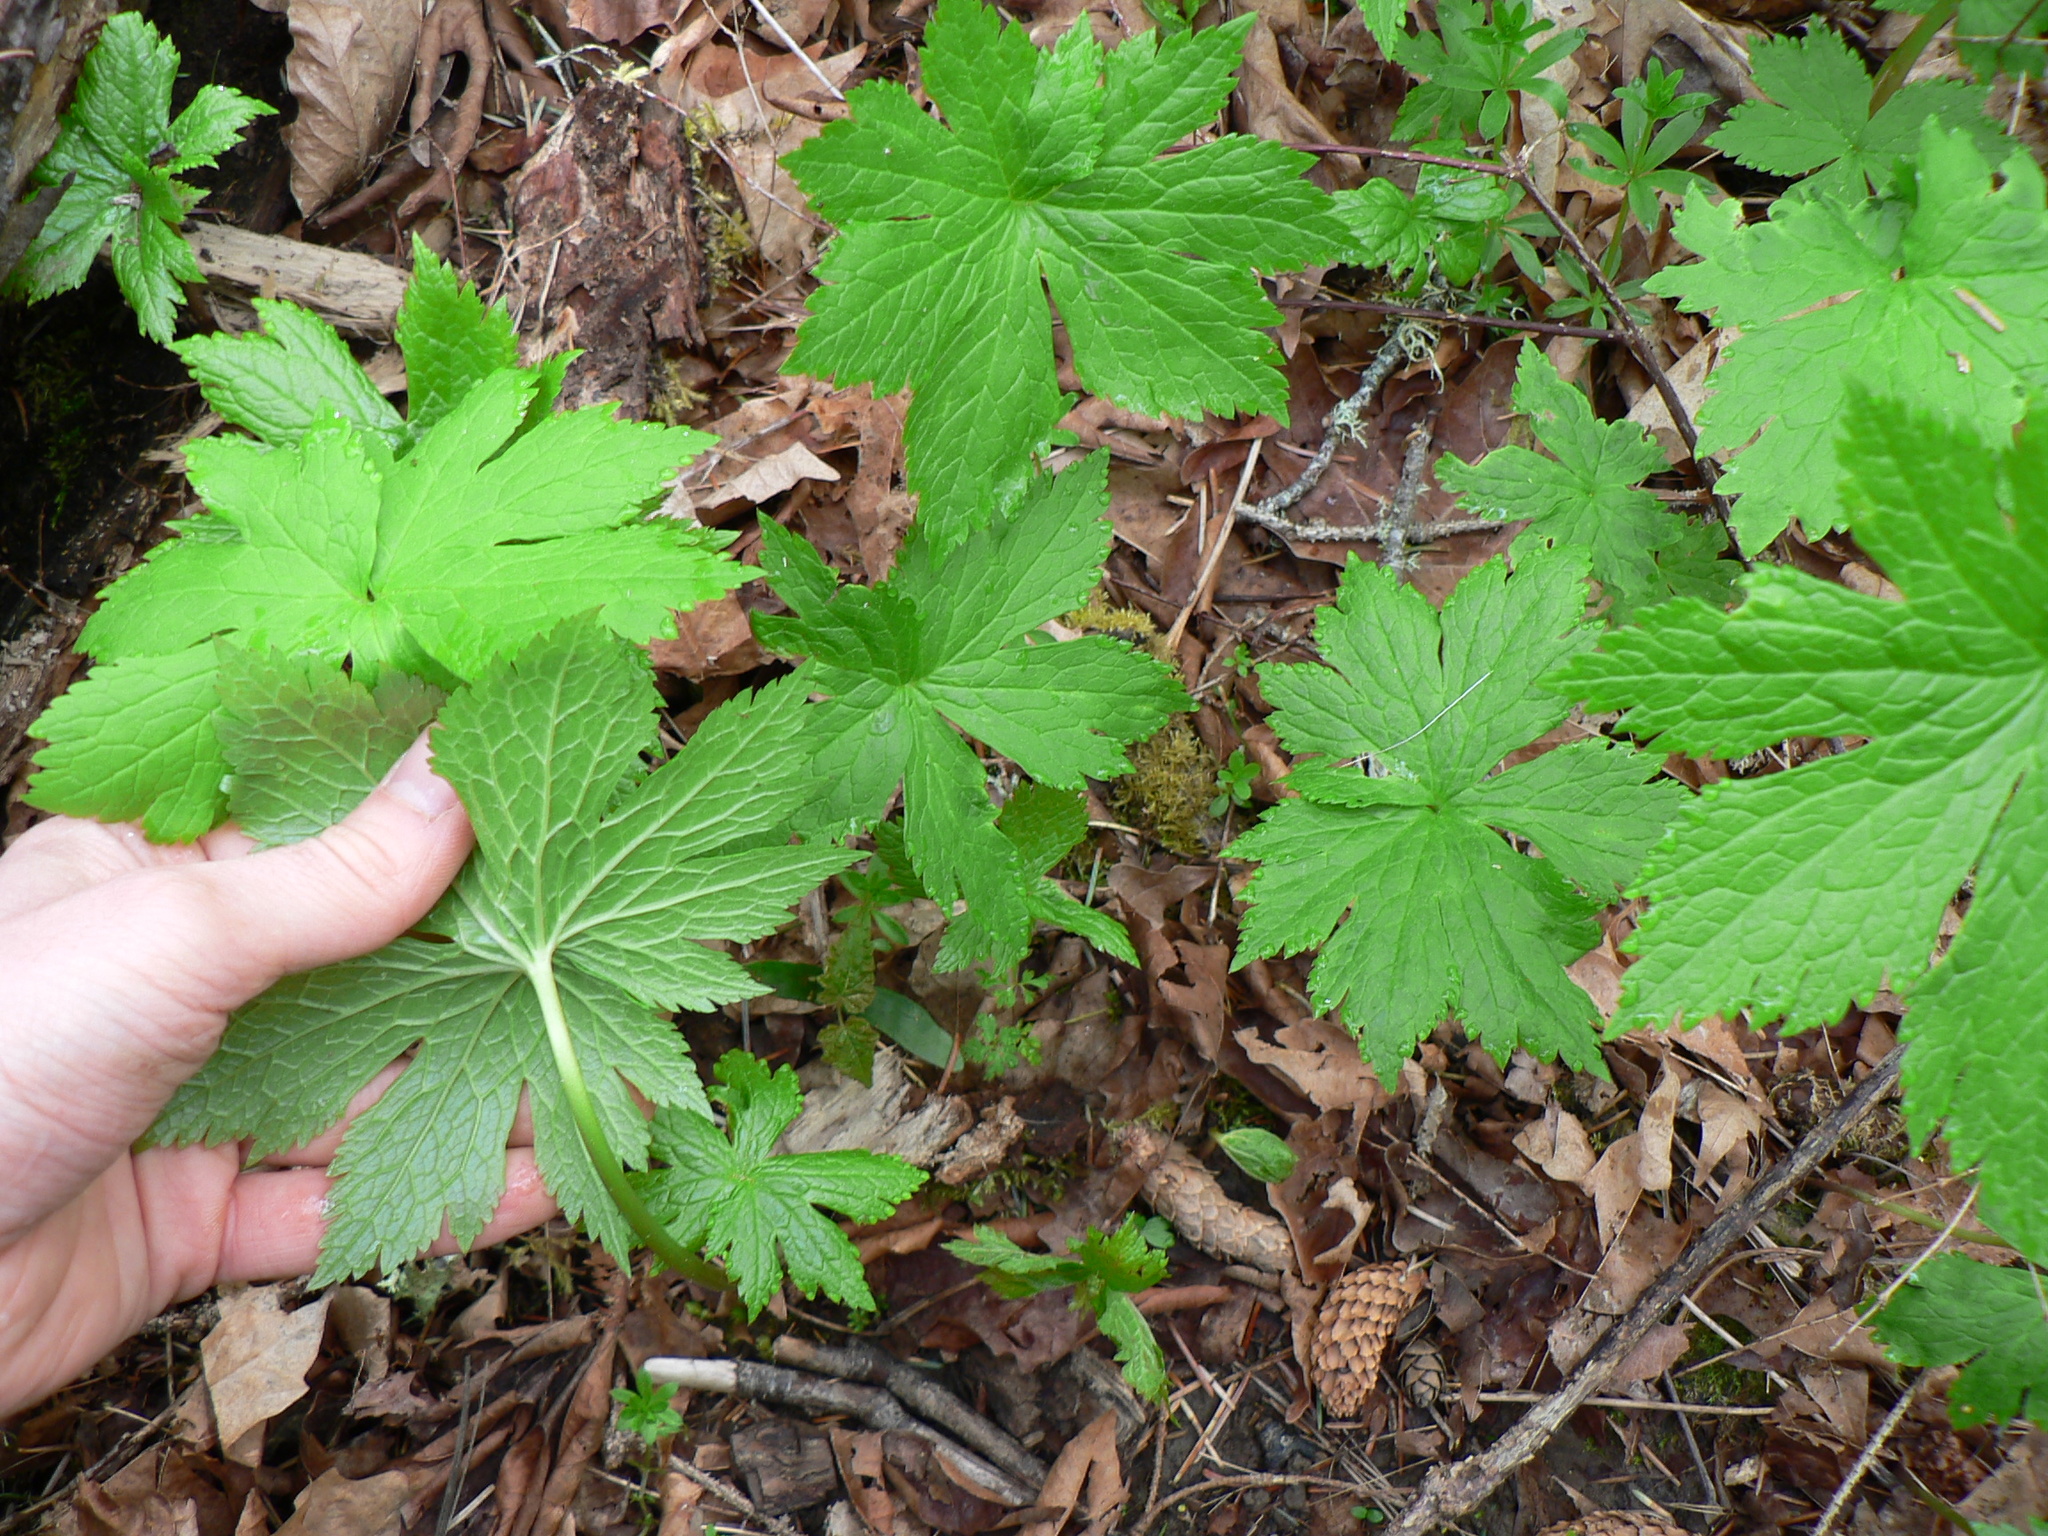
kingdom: Plantae
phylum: Tracheophyta
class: Magnoliopsida
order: Ranunculales
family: Ranunculaceae
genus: Trautvetteria
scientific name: Trautvetteria carolinensis
